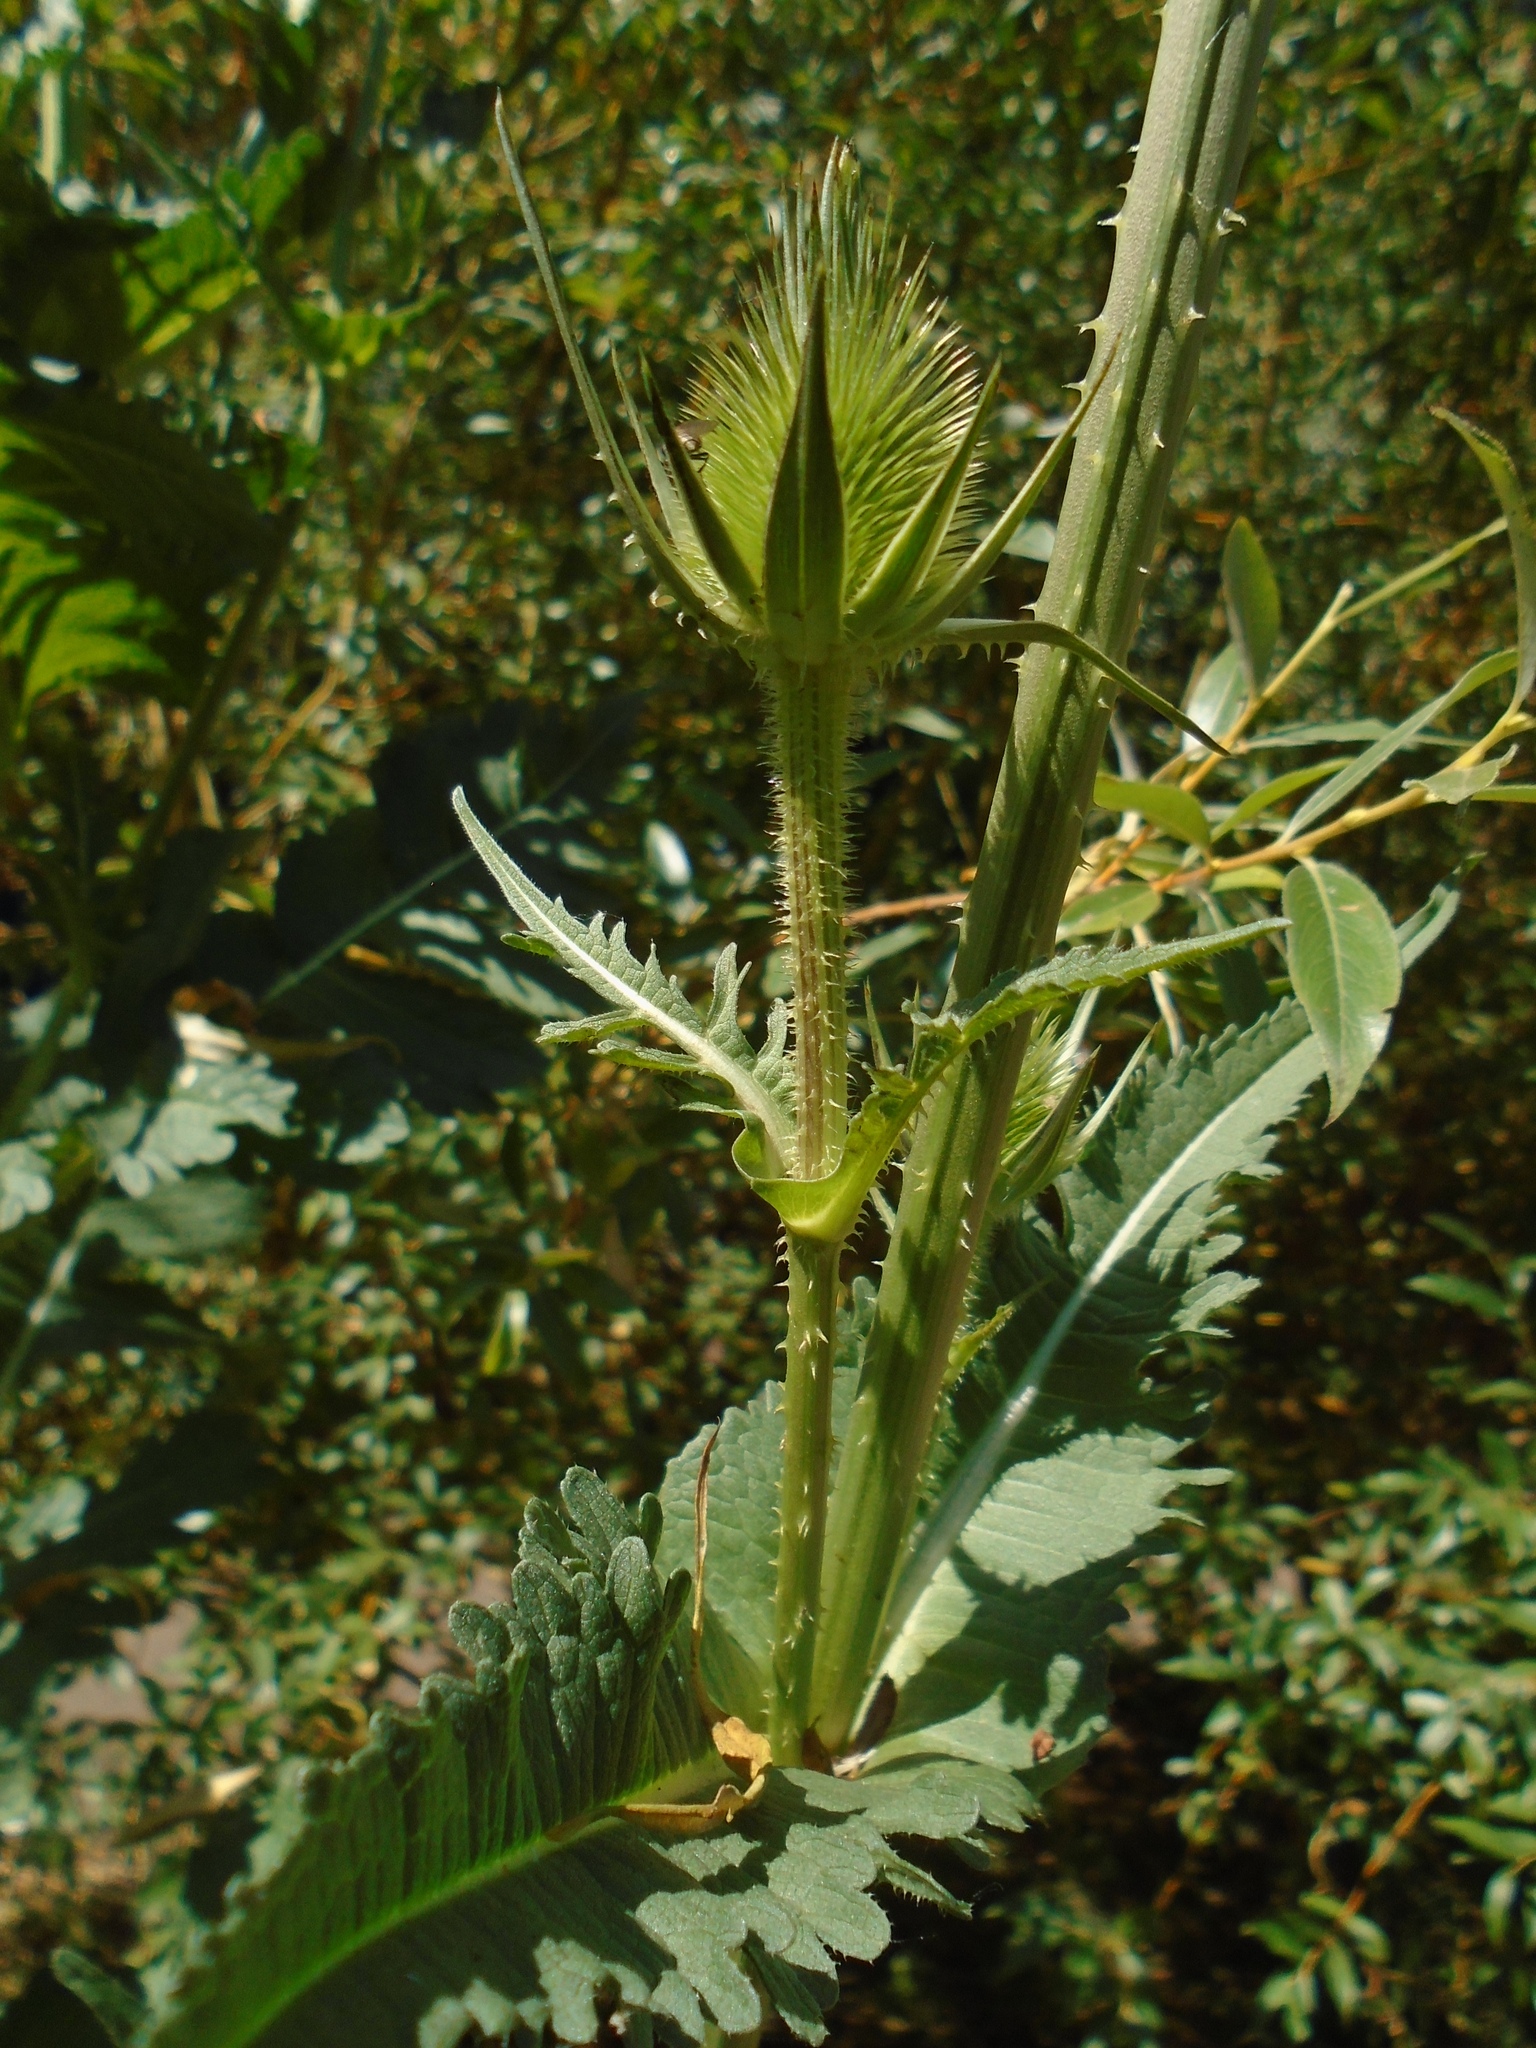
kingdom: Plantae
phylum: Tracheophyta
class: Magnoliopsida
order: Dipsacales
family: Caprifoliaceae
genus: Dipsacus
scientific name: Dipsacus laciniatus
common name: Cut-leaved teasel
